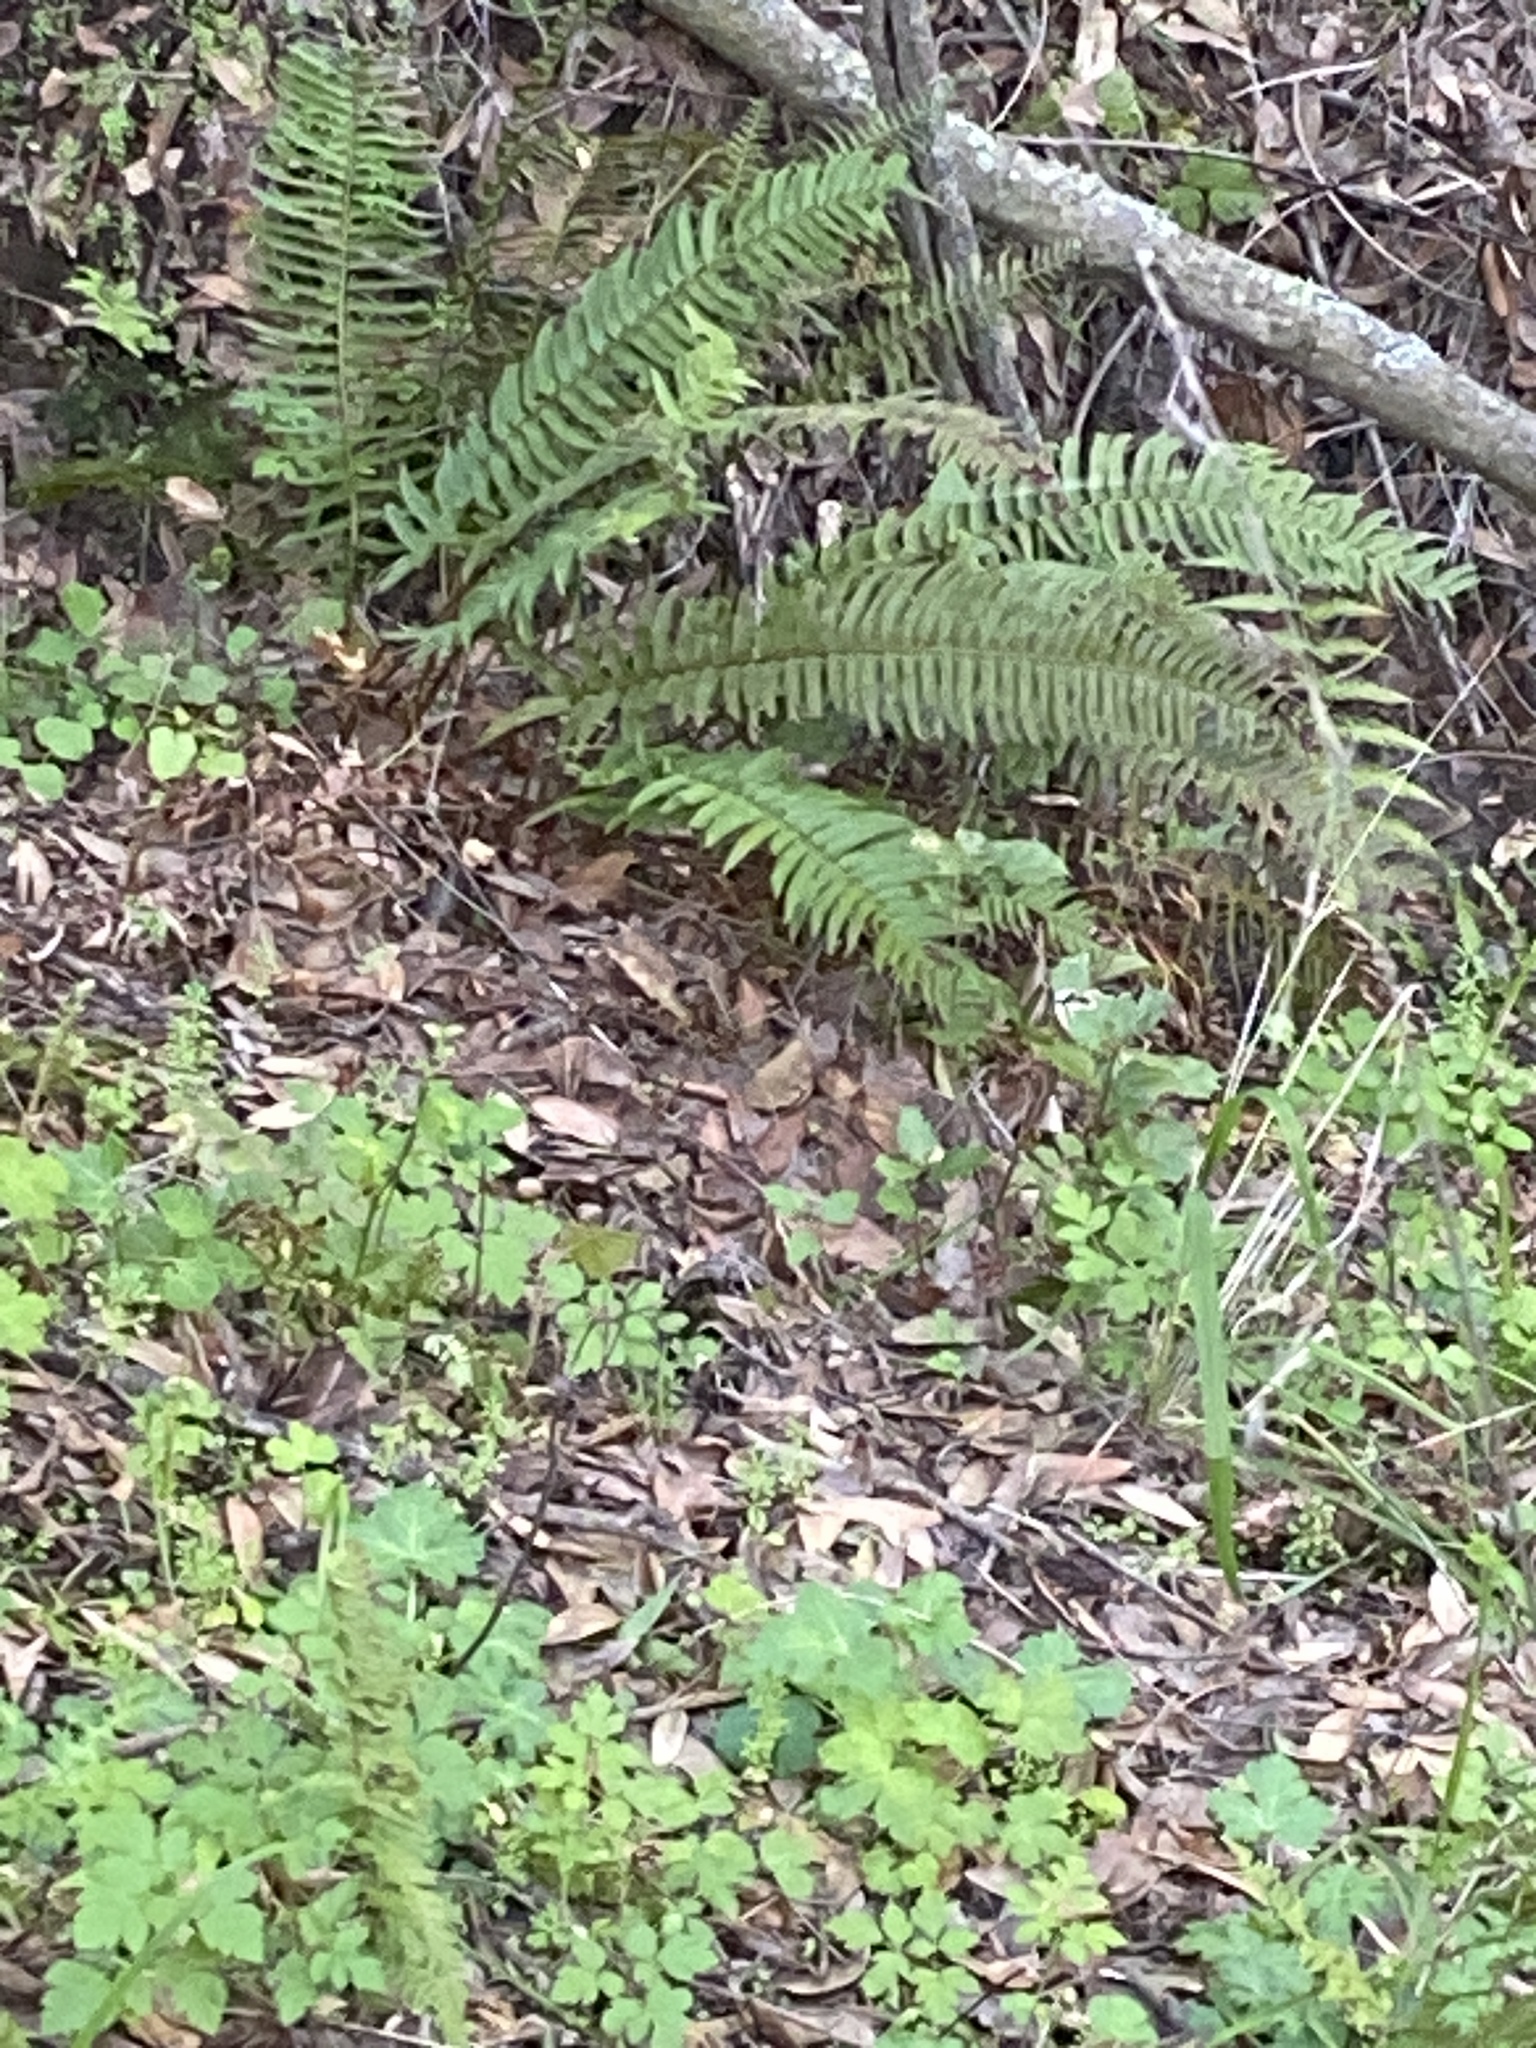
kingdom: Plantae
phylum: Tracheophyta
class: Polypodiopsida
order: Polypodiales
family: Dryopteridaceae
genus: Polystichum
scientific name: Polystichum munitum
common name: Western sword-fern
